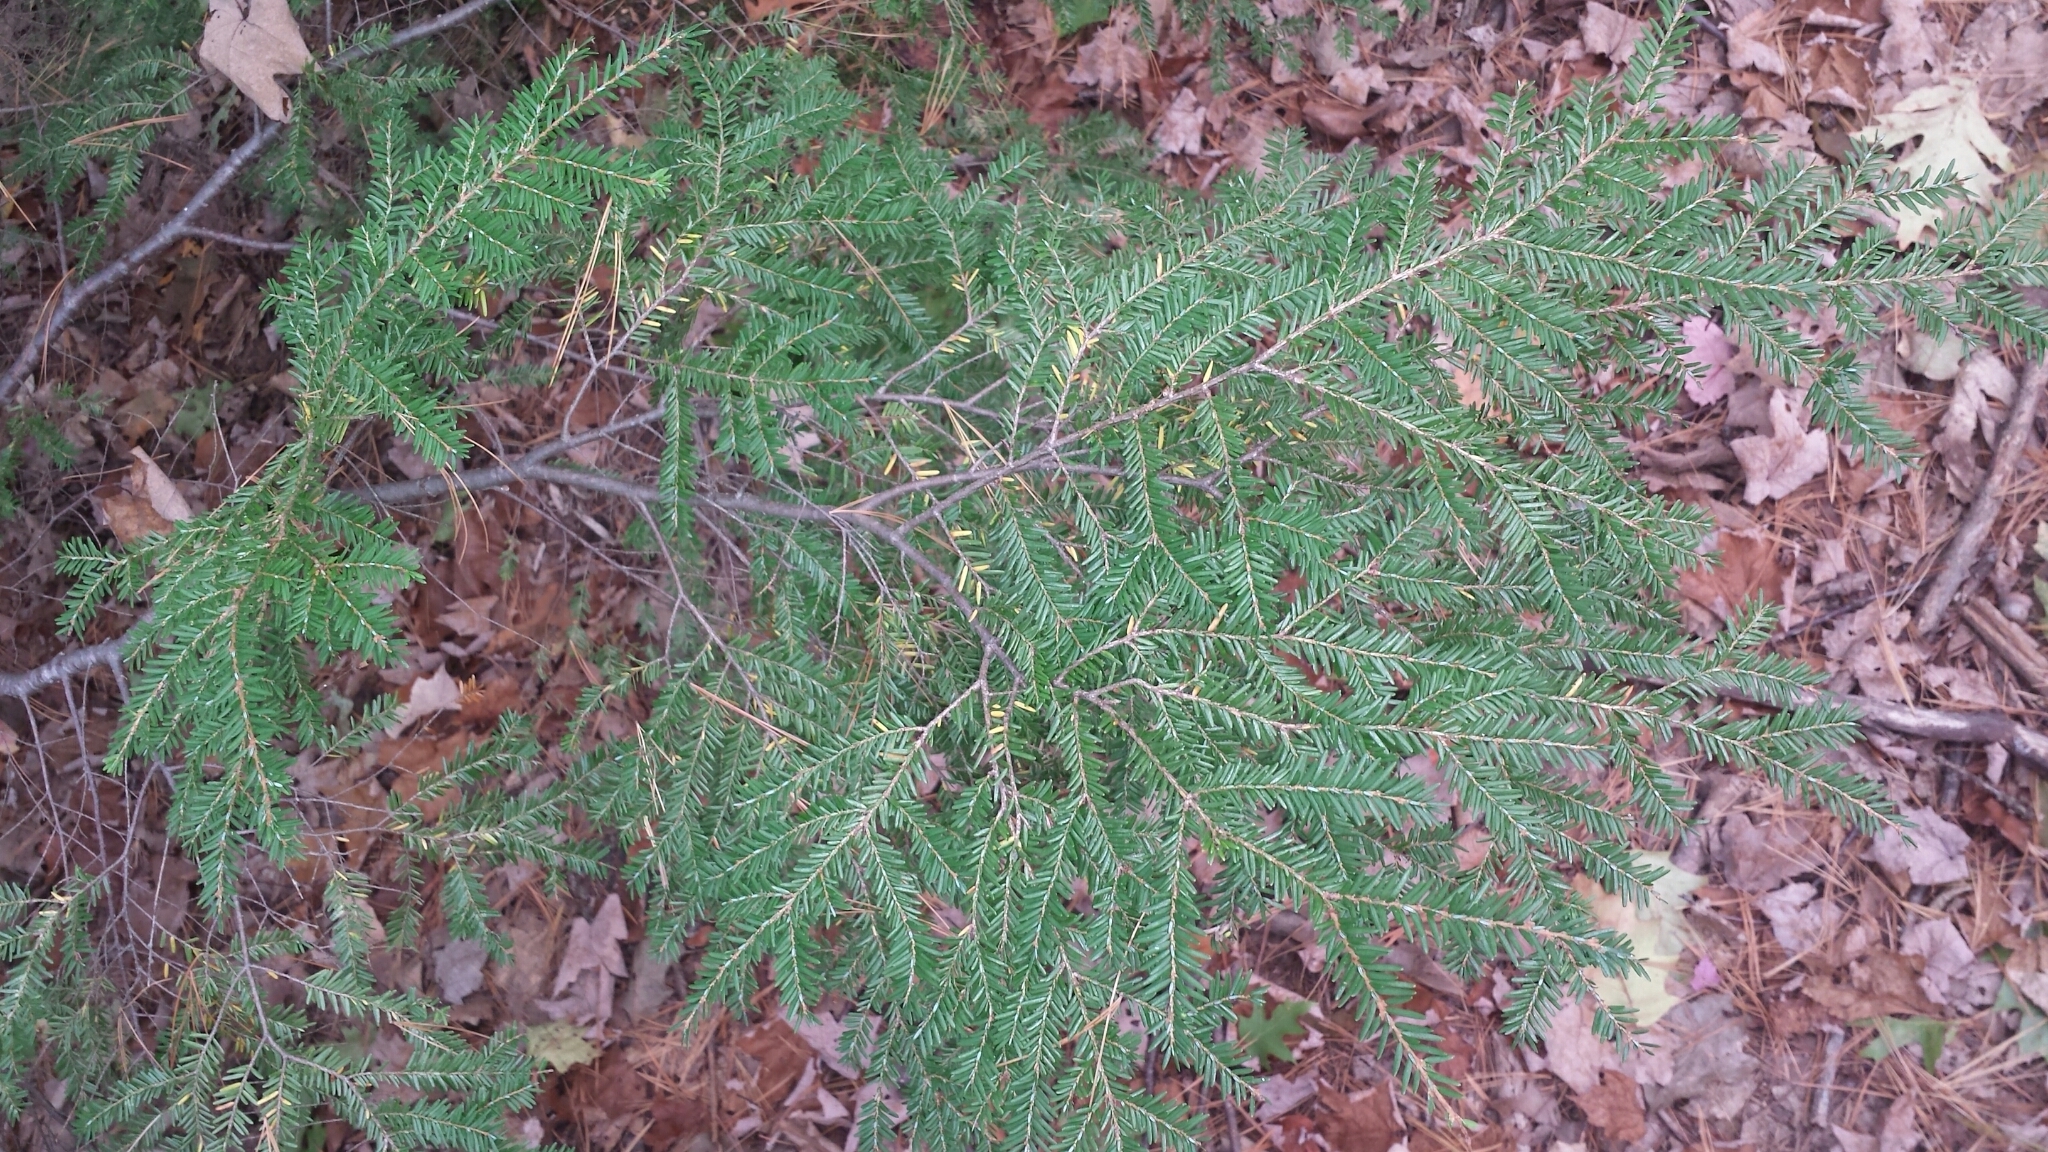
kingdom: Plantae
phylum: Tracheophyta
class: Pinopsida
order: Pinales
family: Pinaceae
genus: Tsuga
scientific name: Tsuga canadensis
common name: Eastern hemlock
